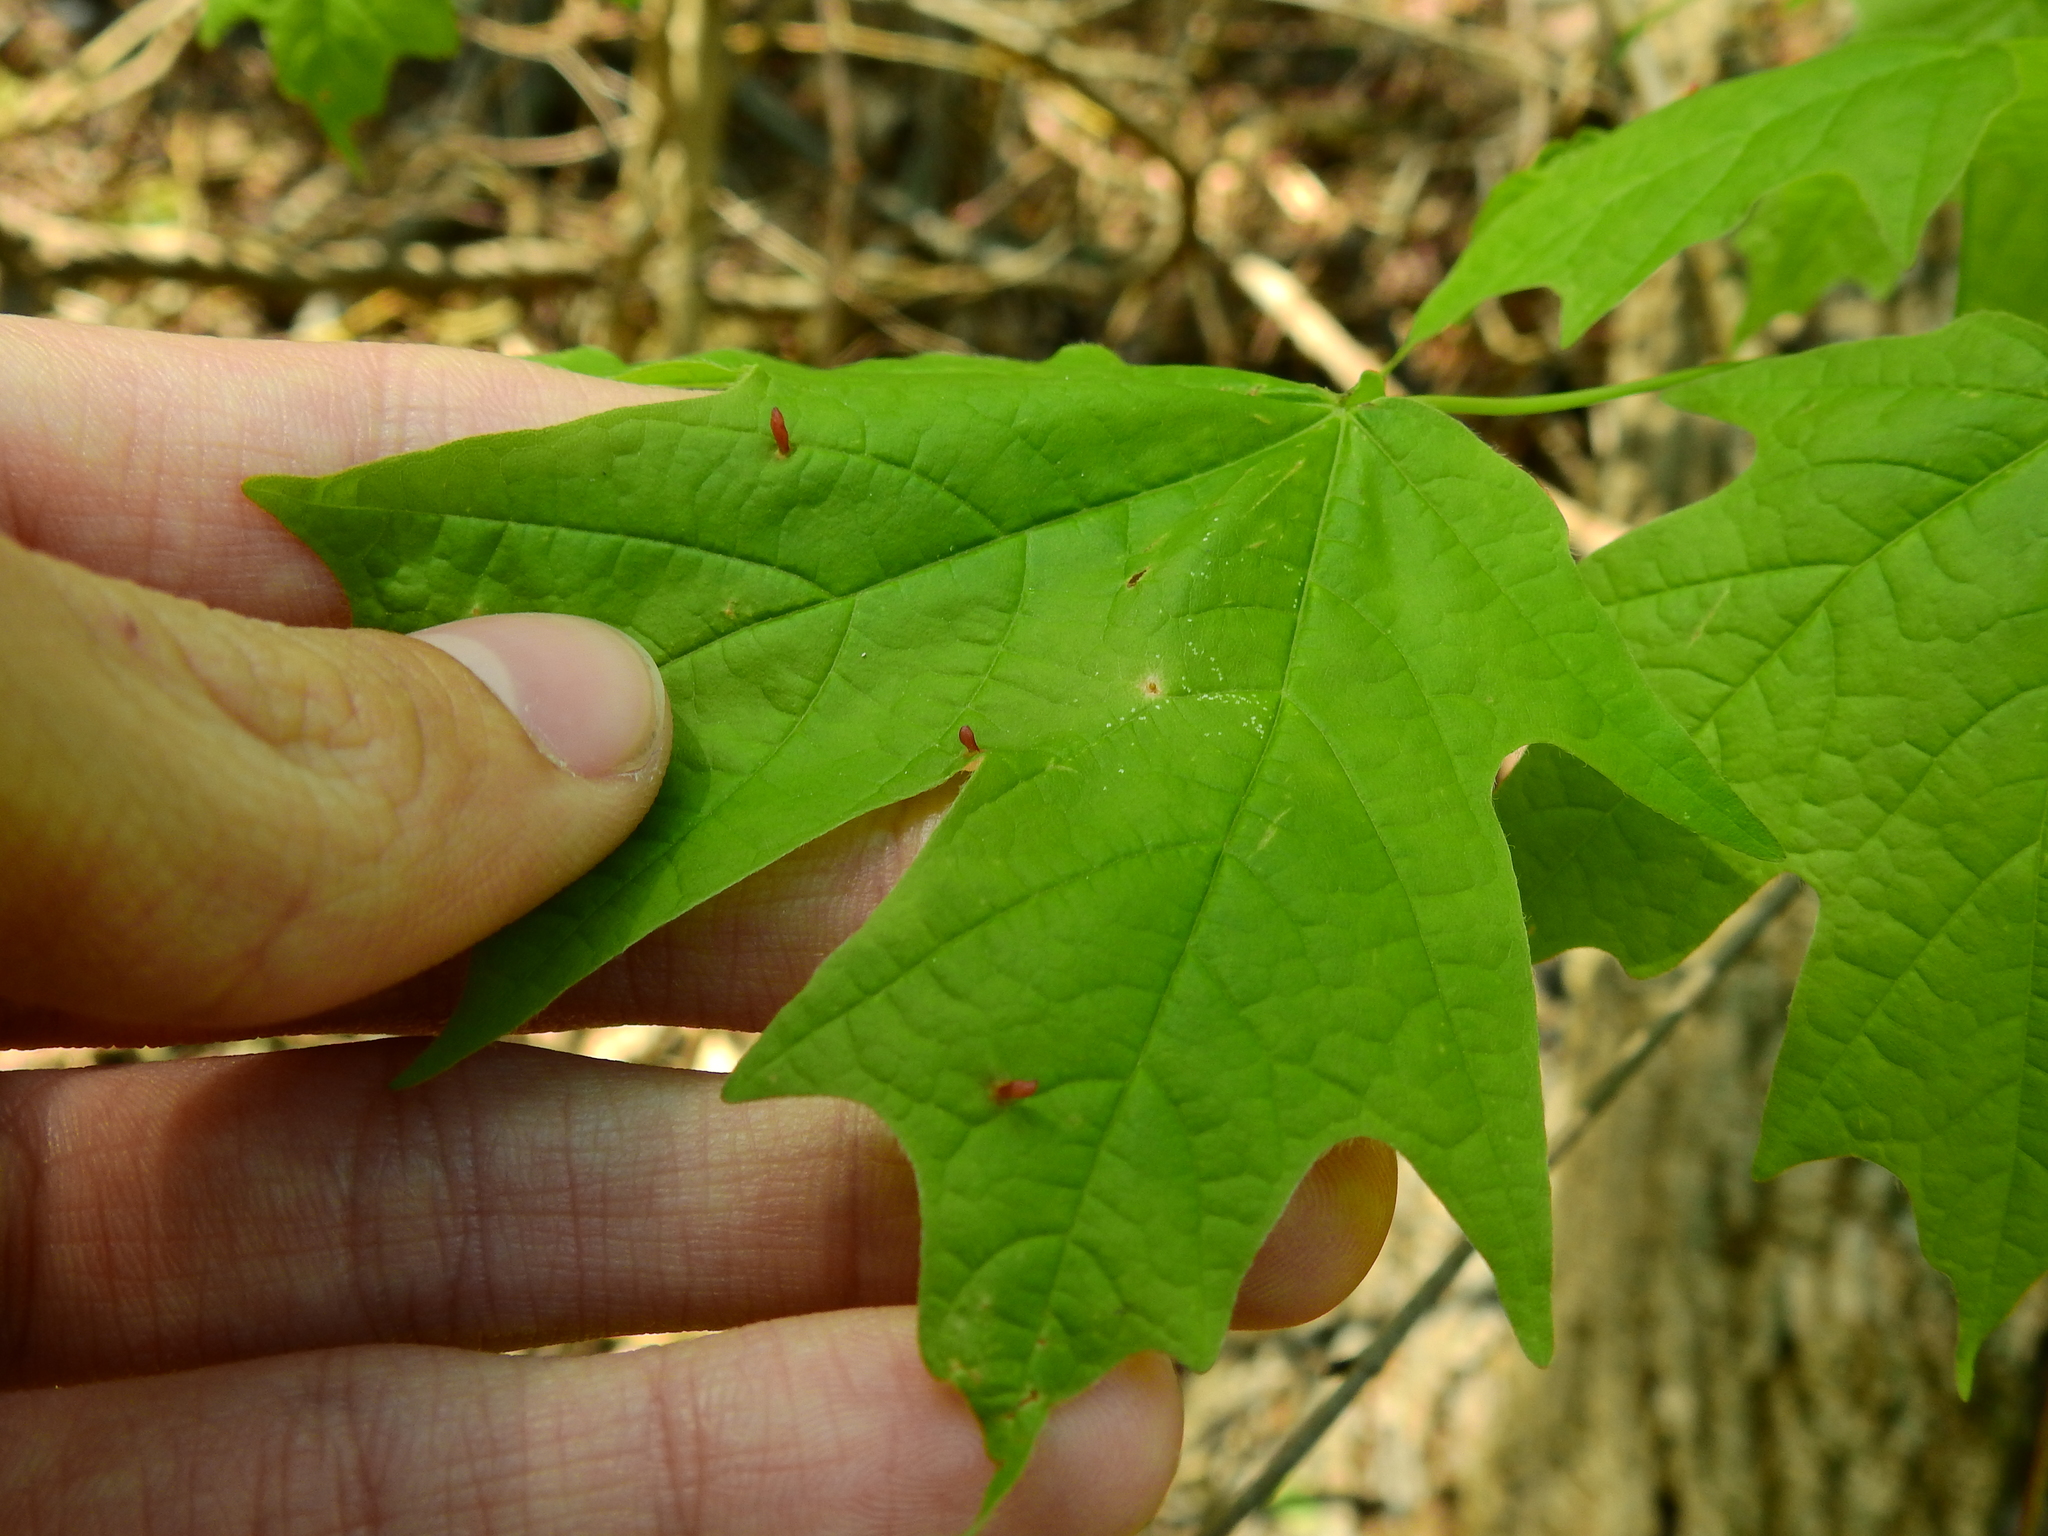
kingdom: Animalia
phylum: Arthropoda
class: Arachnida
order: Trombidiformes
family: Eriophyidae
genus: Vasates
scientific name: Vasates aceriscrumena
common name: Maple spindle gall mite
